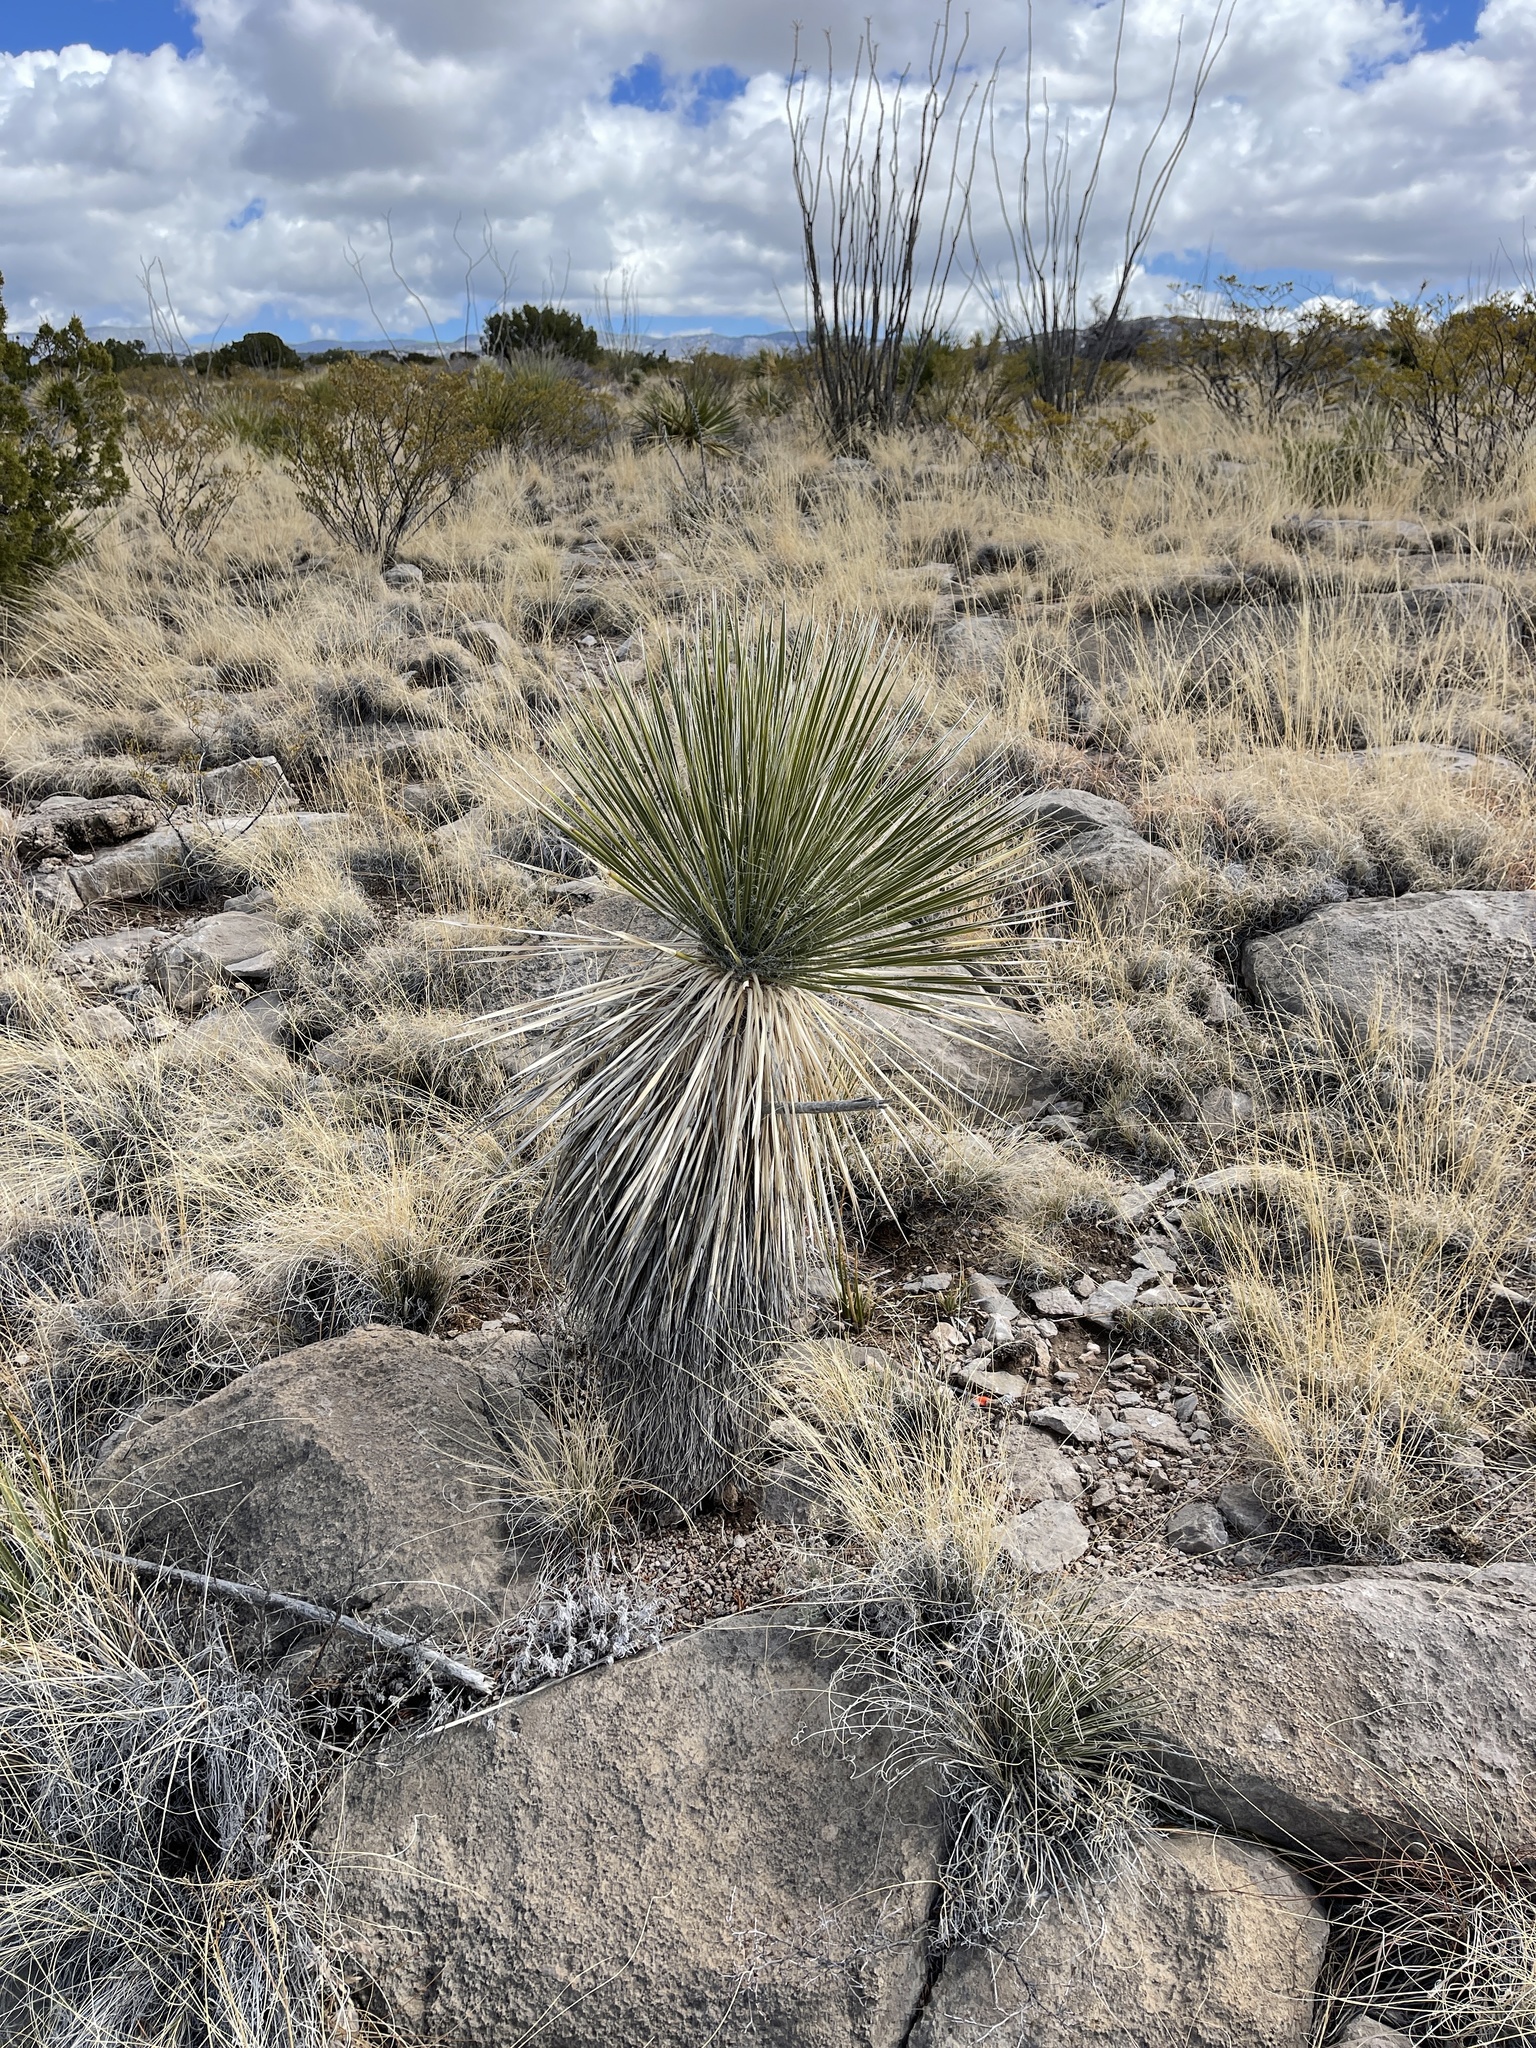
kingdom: Plantae
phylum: Tracheophyta
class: Liliopsida
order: Asparagales
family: Asparagaceae
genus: Yucca
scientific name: Yucca elata
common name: Palmella
